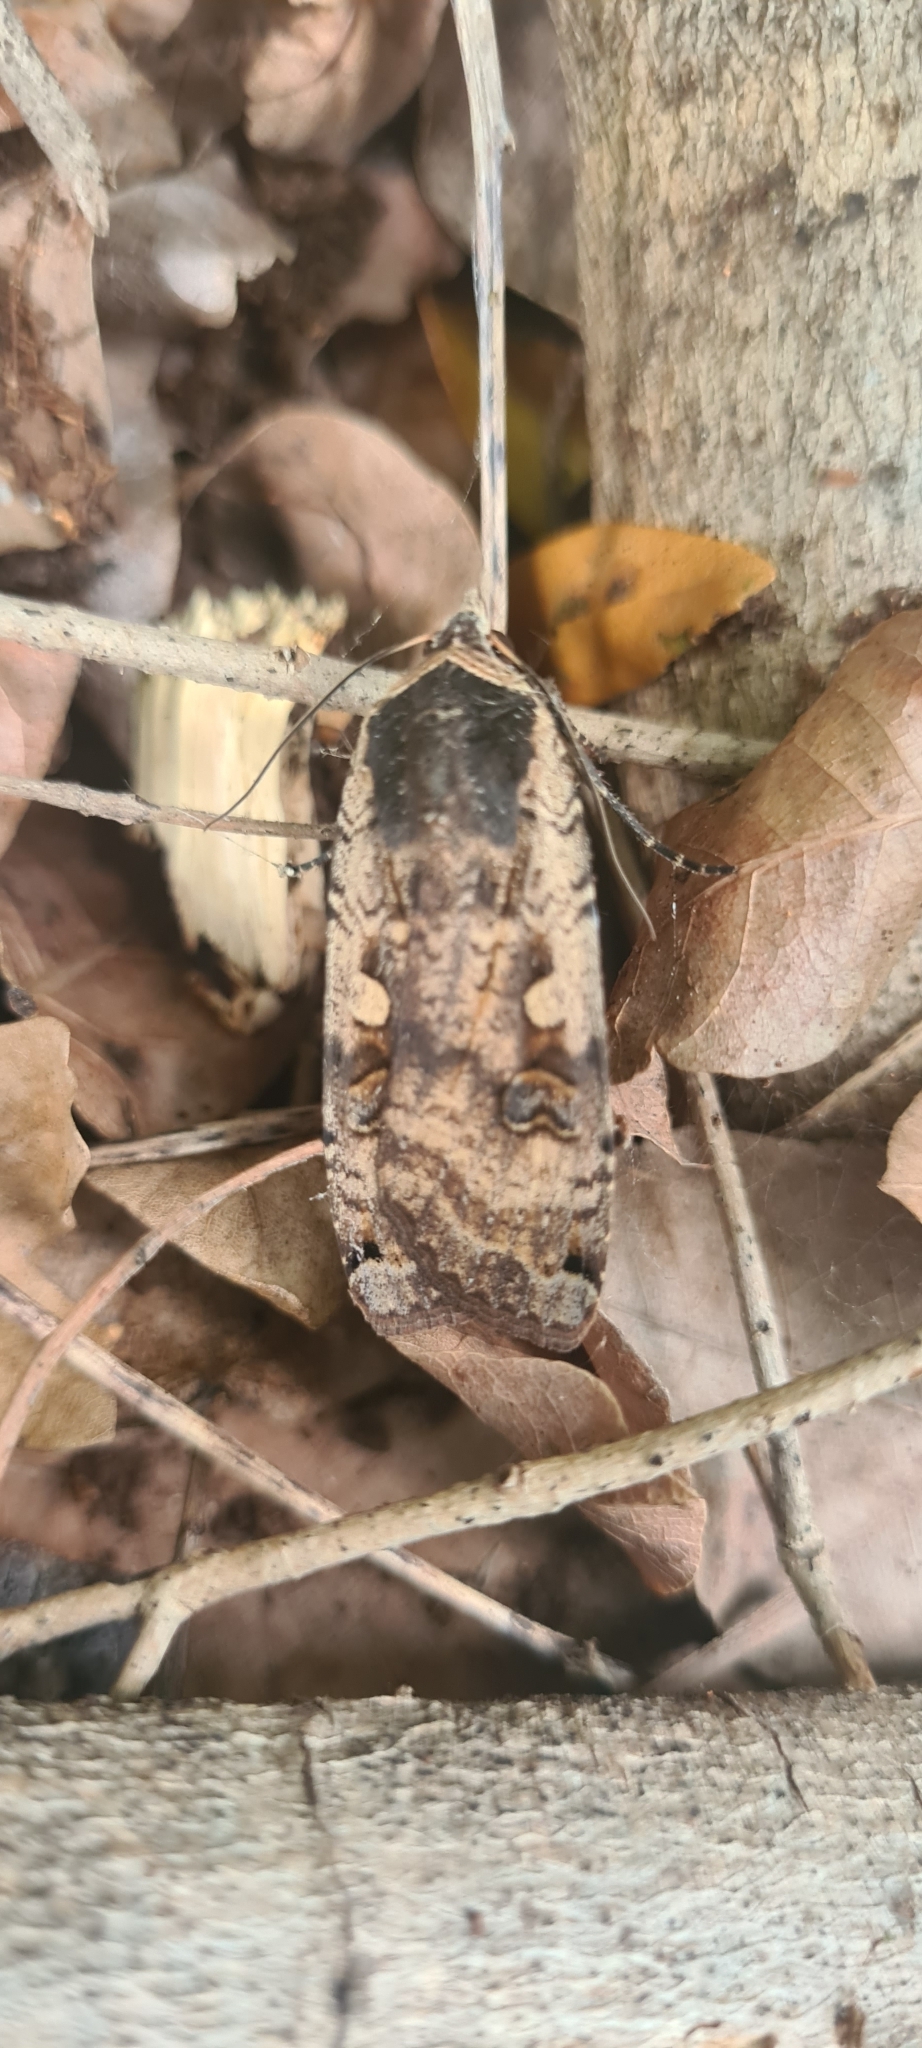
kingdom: Animalia
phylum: Arthropoda
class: Insecta
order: Lepidoptera
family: Noctuidae
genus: Noctua
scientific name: Noctua pronuba
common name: Large yellow underwing
